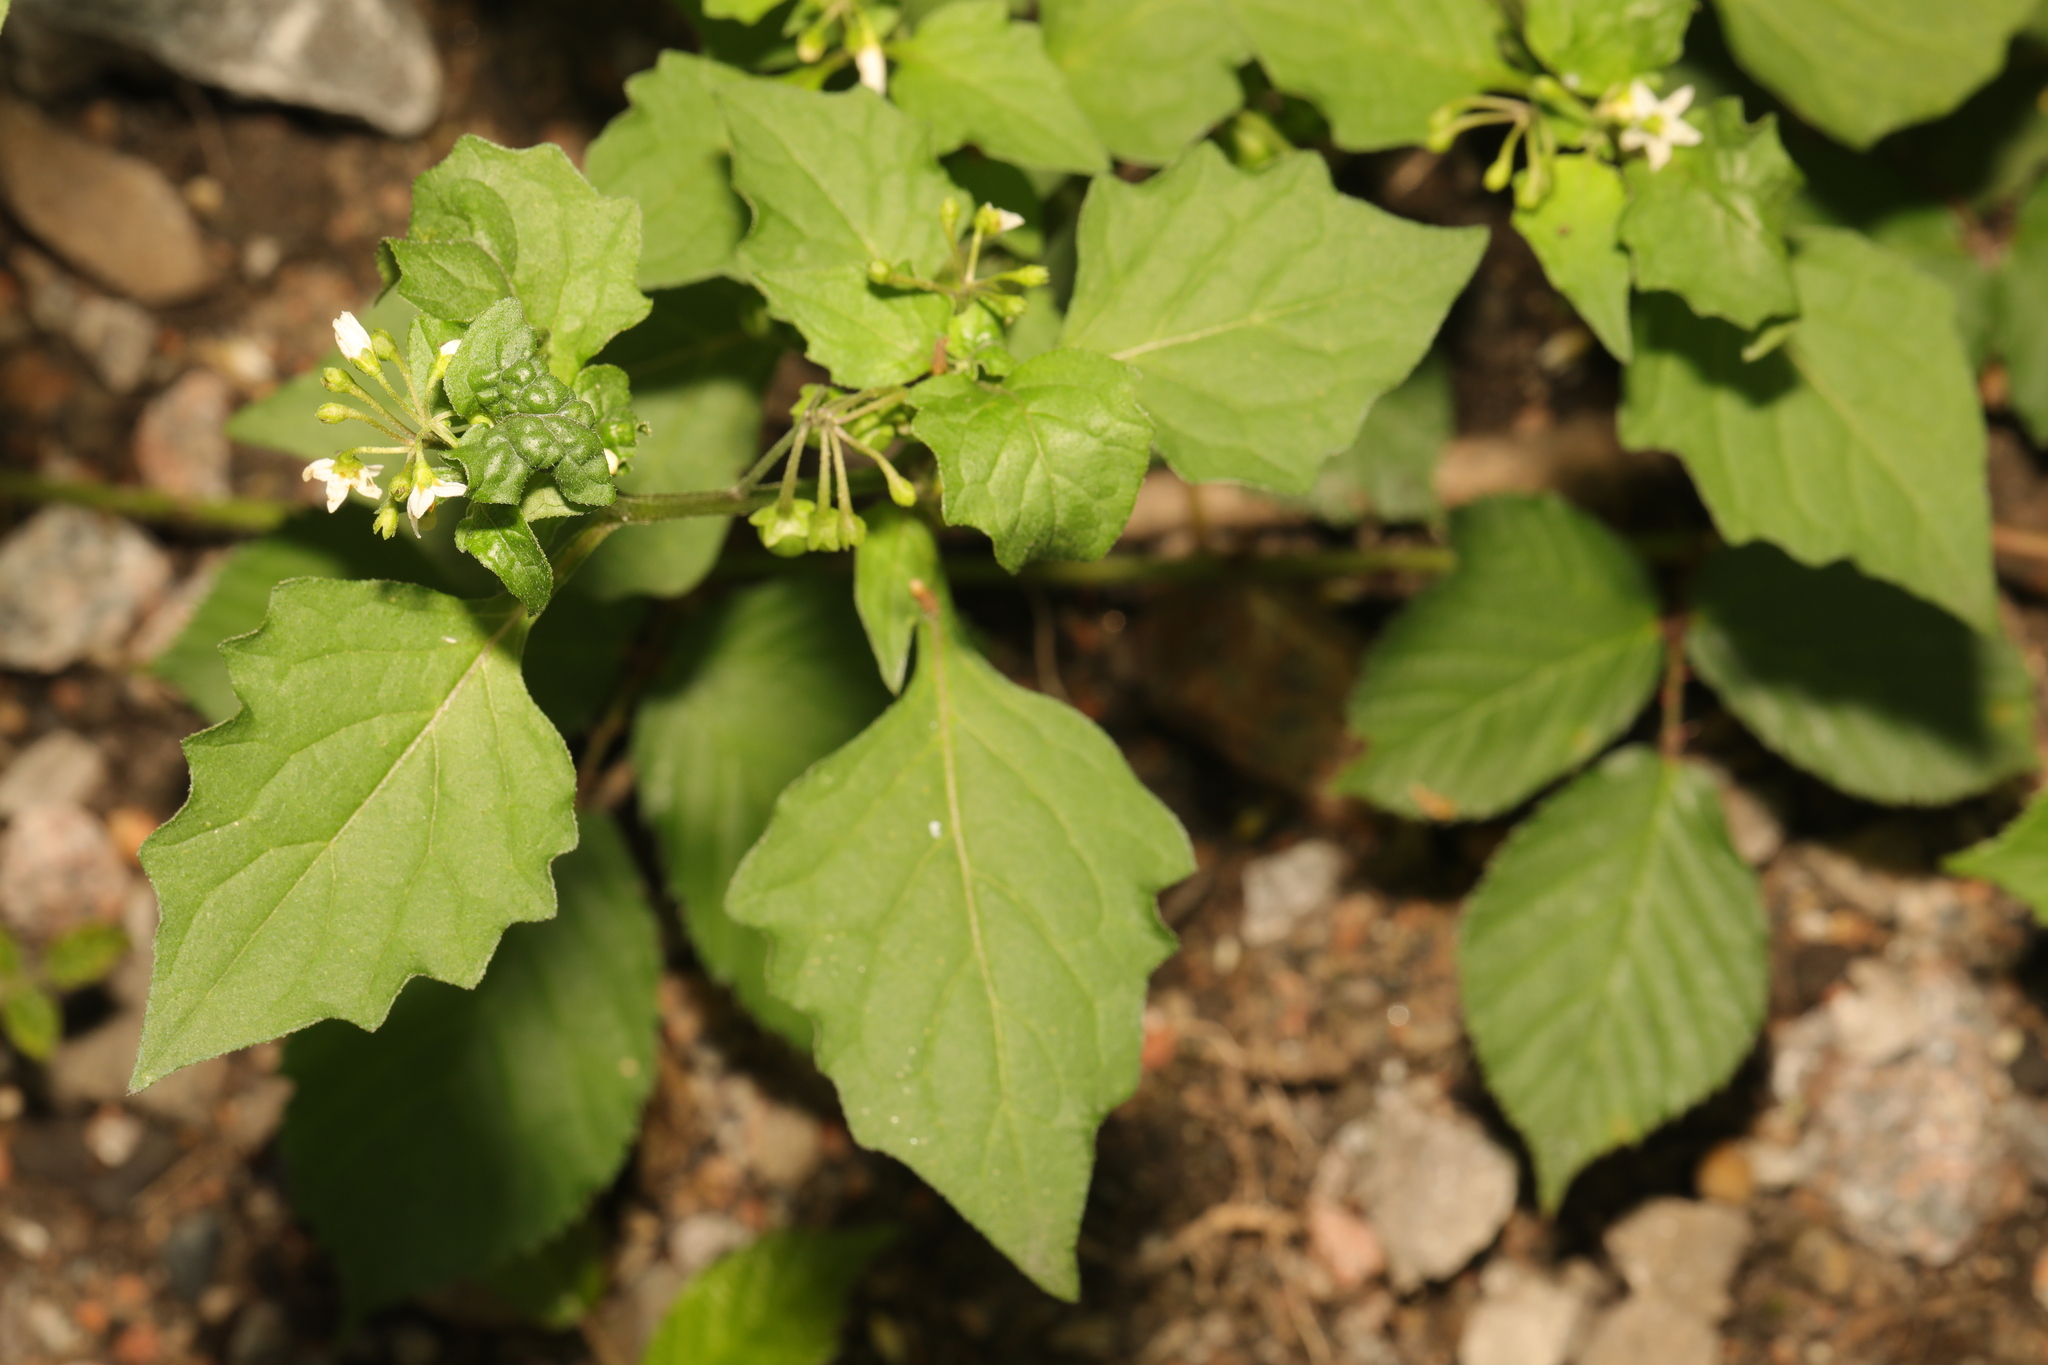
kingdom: Plantae
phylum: Tracheophyta
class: Magnoliopsida
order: Solanales
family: Solanaceae
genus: Solanum
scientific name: Solanum nigrum
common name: Black nightshade
